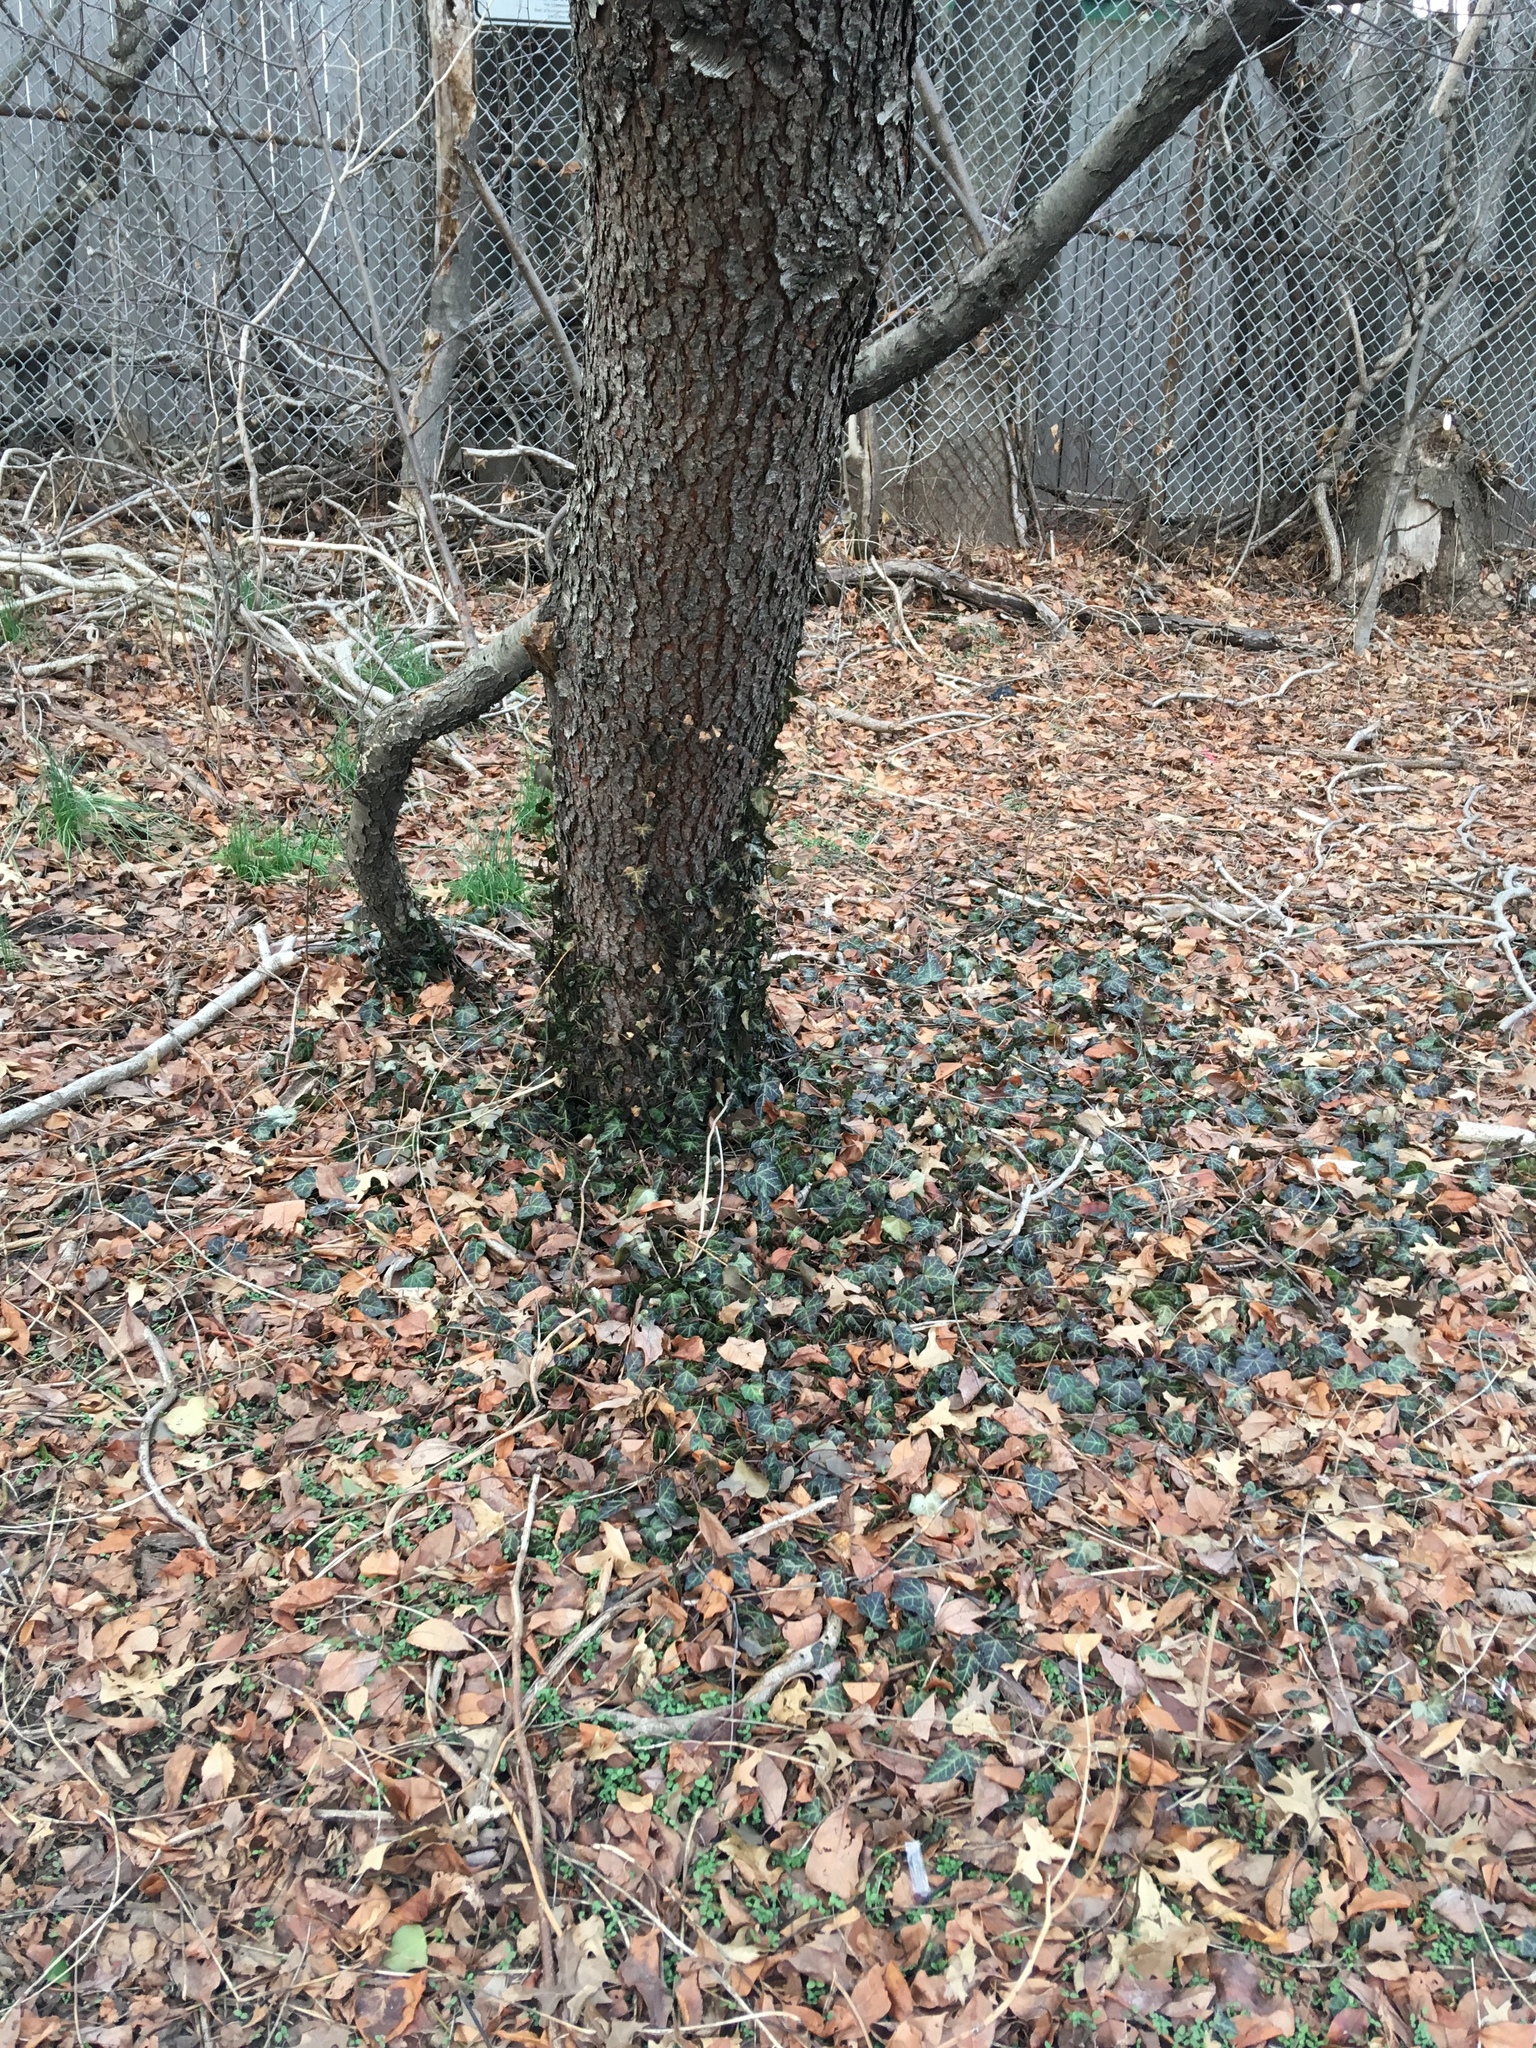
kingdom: Plantae
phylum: Tracheophyta
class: Magnoliopsida
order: Apiales
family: Araliaceae
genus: Hedera
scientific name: Hedera helix
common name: Ivy
